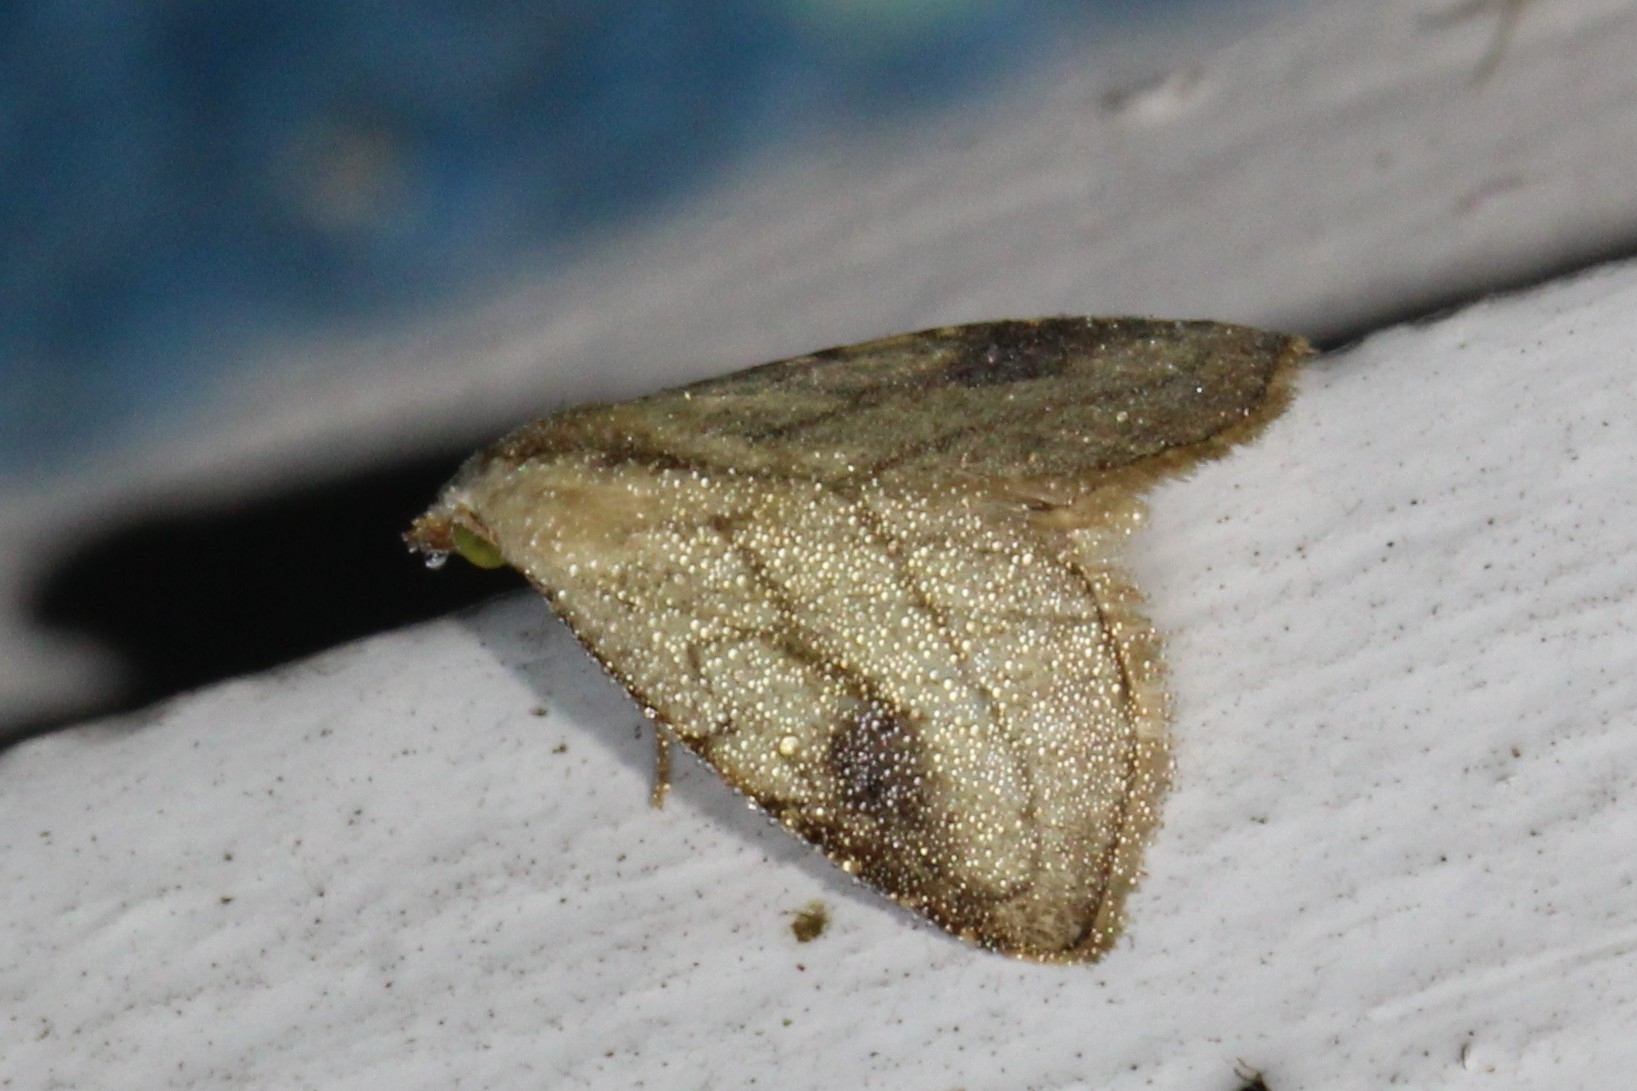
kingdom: Animalia
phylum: Arthropoda
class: Insecta
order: Lepidoptera
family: Erebidae
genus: Rivula
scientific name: Rivula propinqualis
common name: Spotted grass moth
